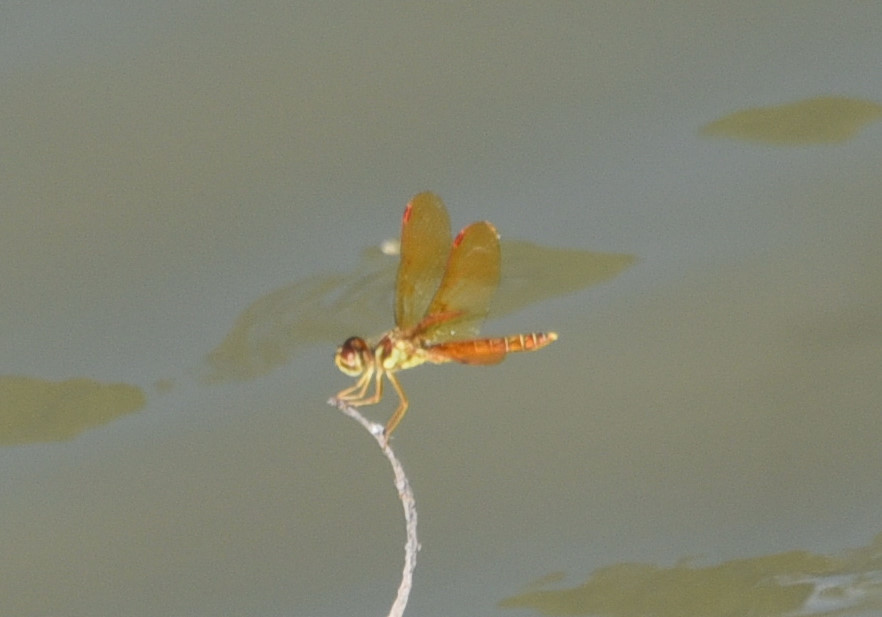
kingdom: Animalia
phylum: Arthropoda
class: Insecta
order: Odonata
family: Libellulidae
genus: Perithemis
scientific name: Perithemis tenera
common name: Eastern amberwing
